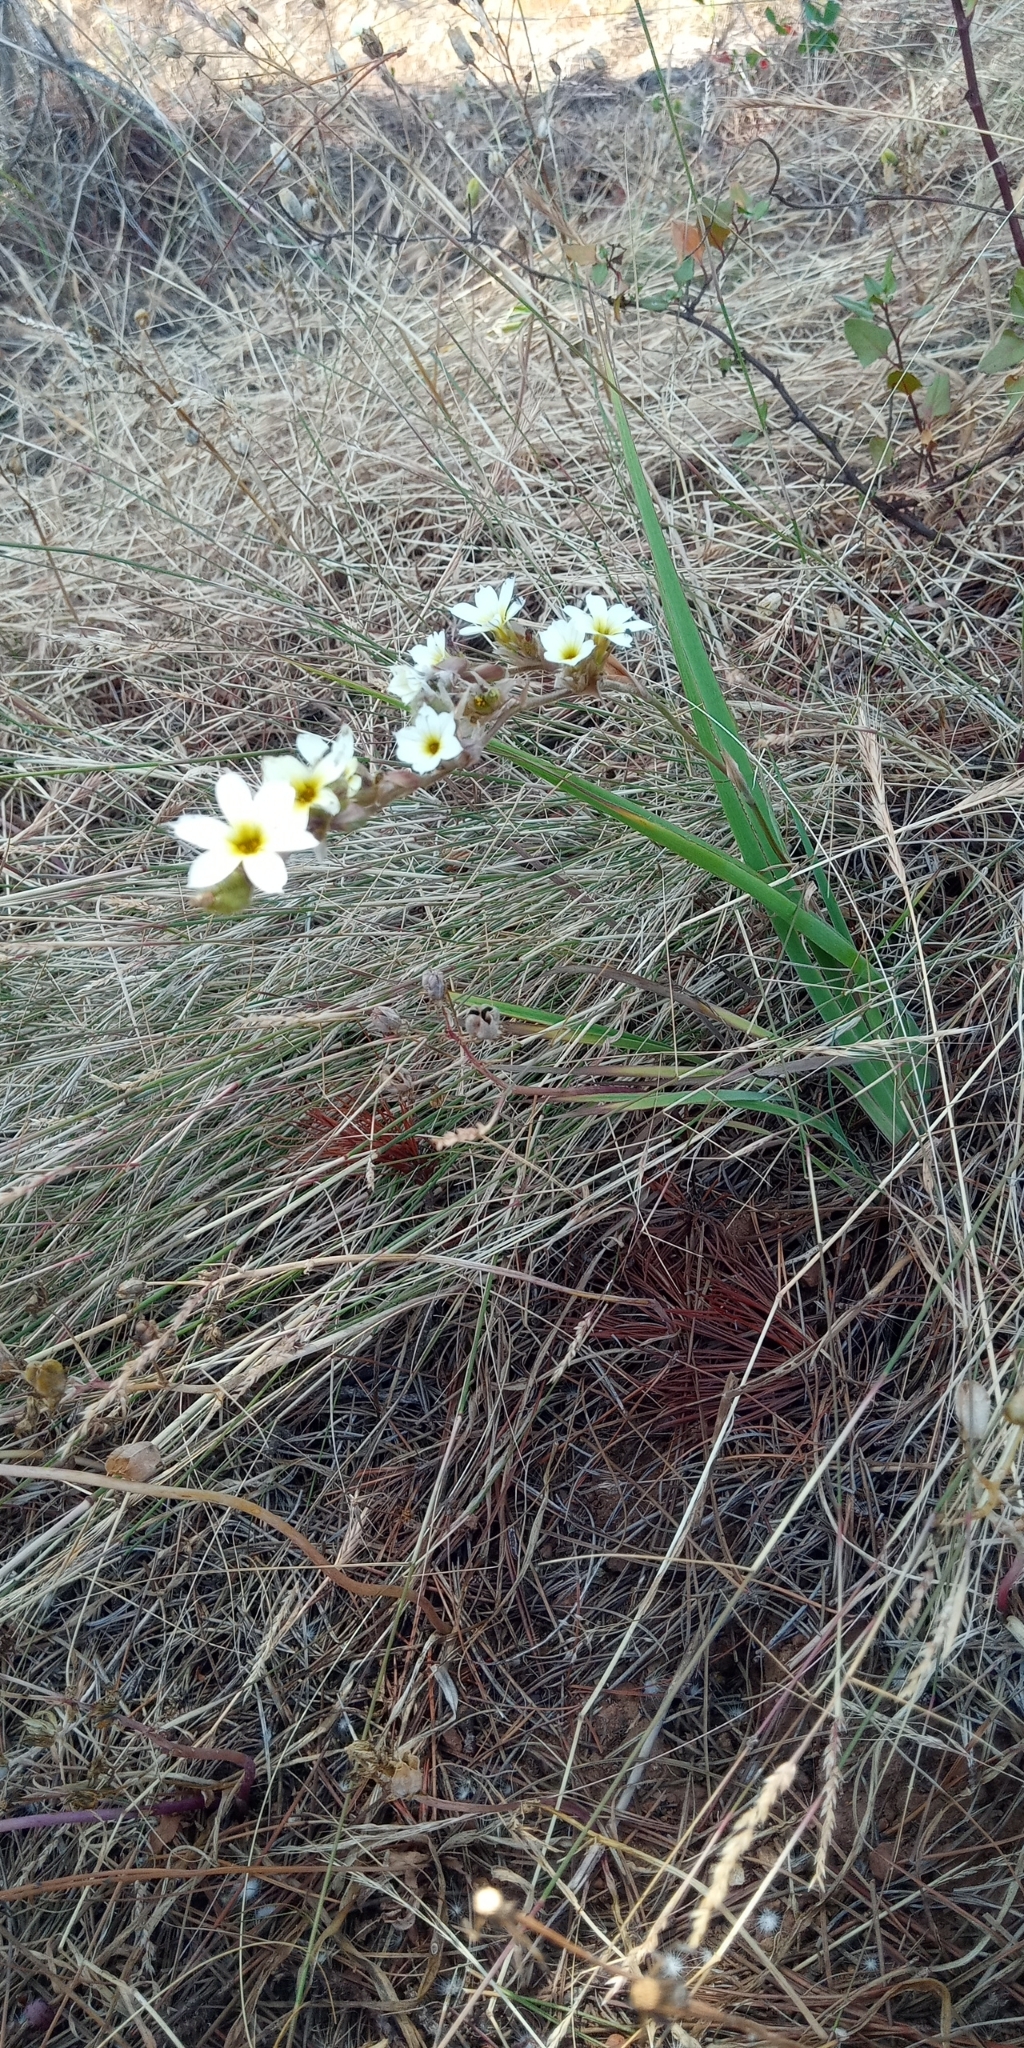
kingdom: Plantae
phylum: Tracheophyta
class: Liliopsida
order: Asparagales
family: Iridaceae
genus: Sisyrinchium
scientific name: Sisyrinchium striatum
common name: Pale yellow-eyed-grass
